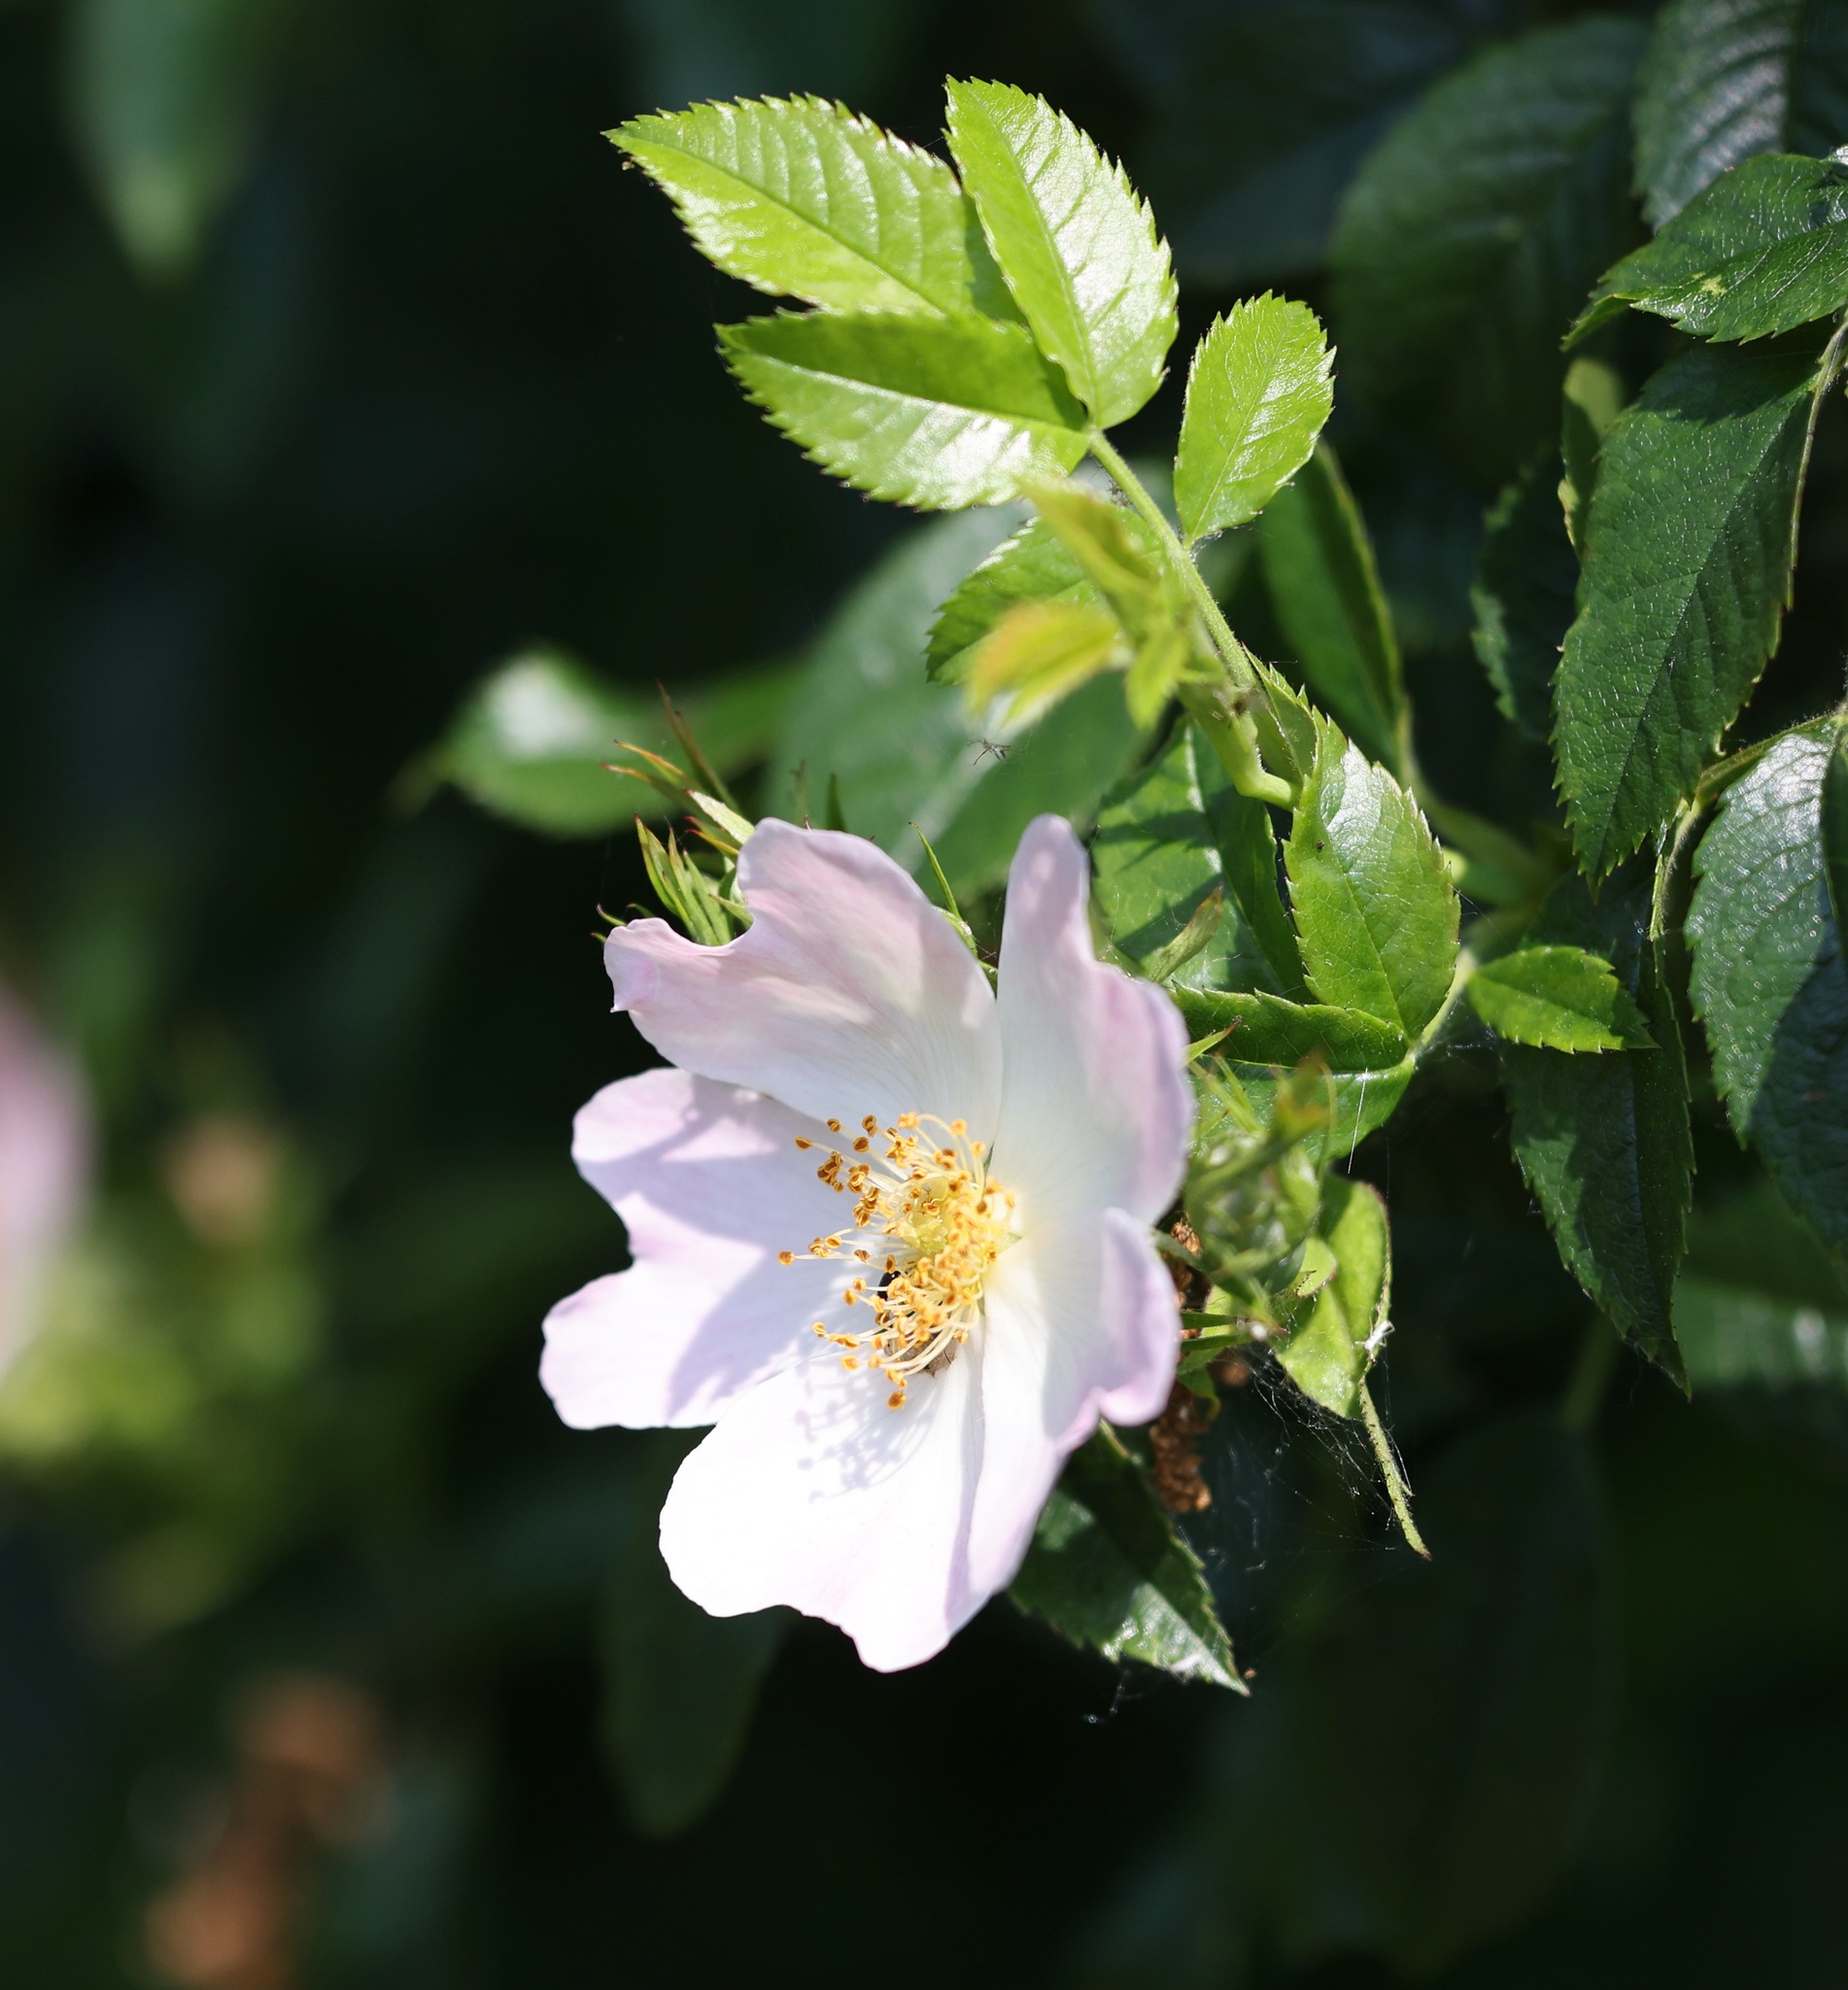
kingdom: Plantae
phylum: Tracheophyta
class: Magnoliopsida
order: Rosales
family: Rosaceae
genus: Rosa
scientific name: Rosa canina
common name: Dog rose
